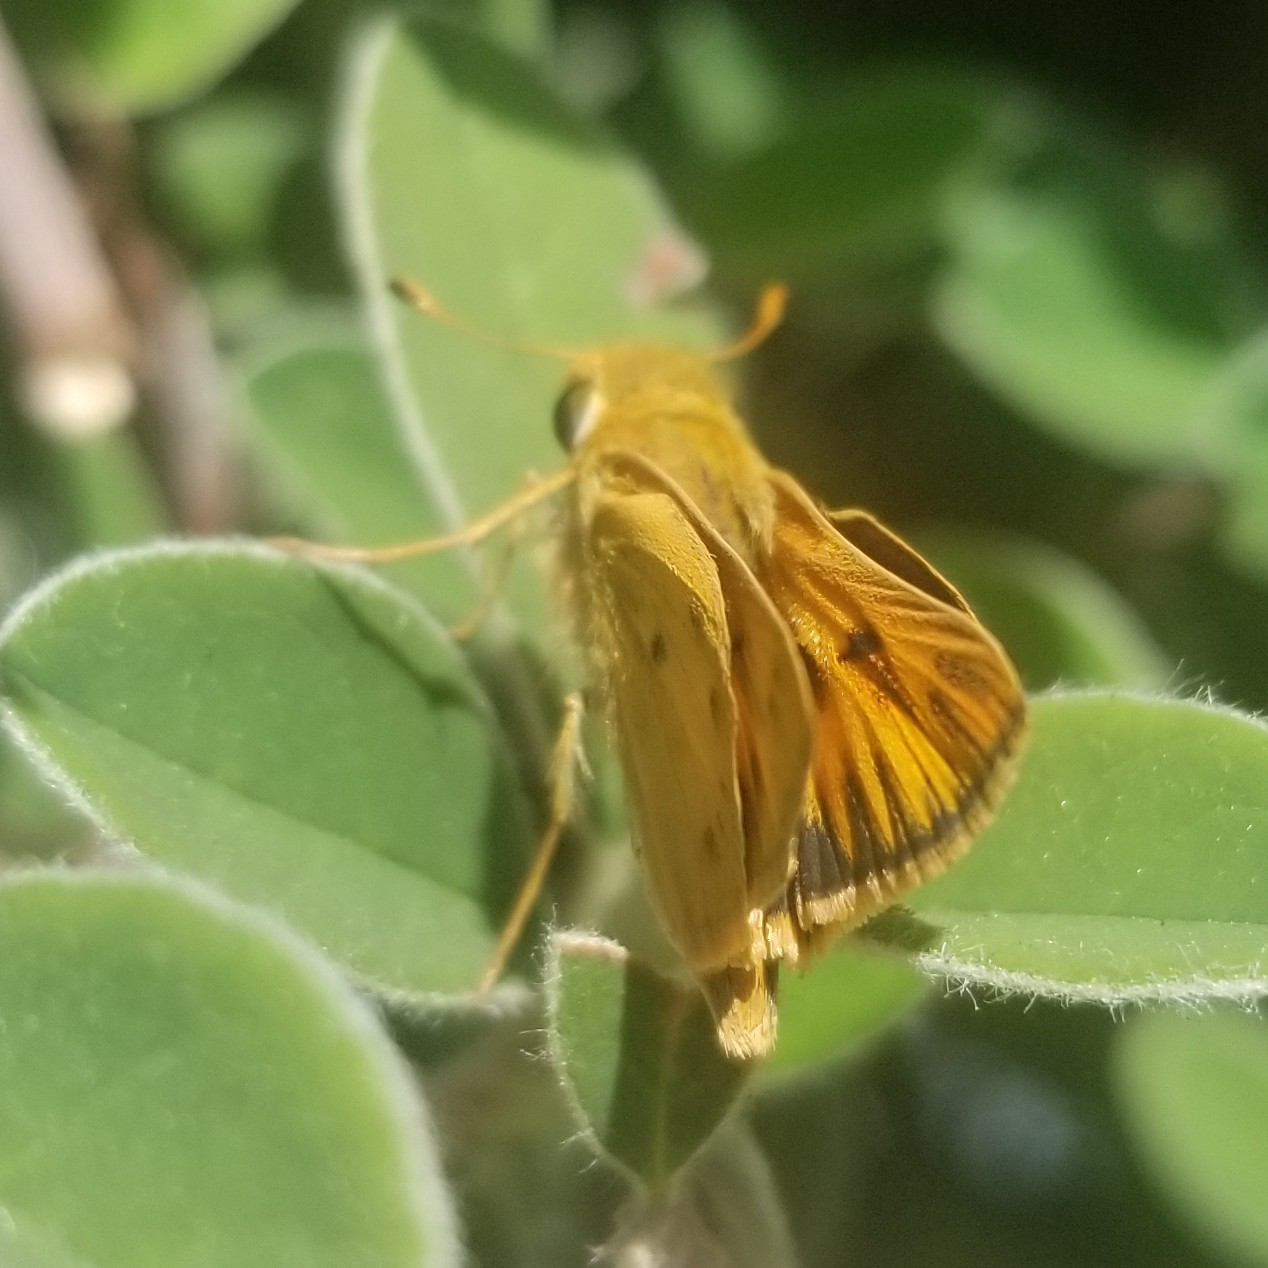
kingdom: Animalia
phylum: Arthropoda
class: Insecta
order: Lepidoptera
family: Hesperiidae
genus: Hylephila
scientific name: Hylephila phyleus
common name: Fiery skipper
